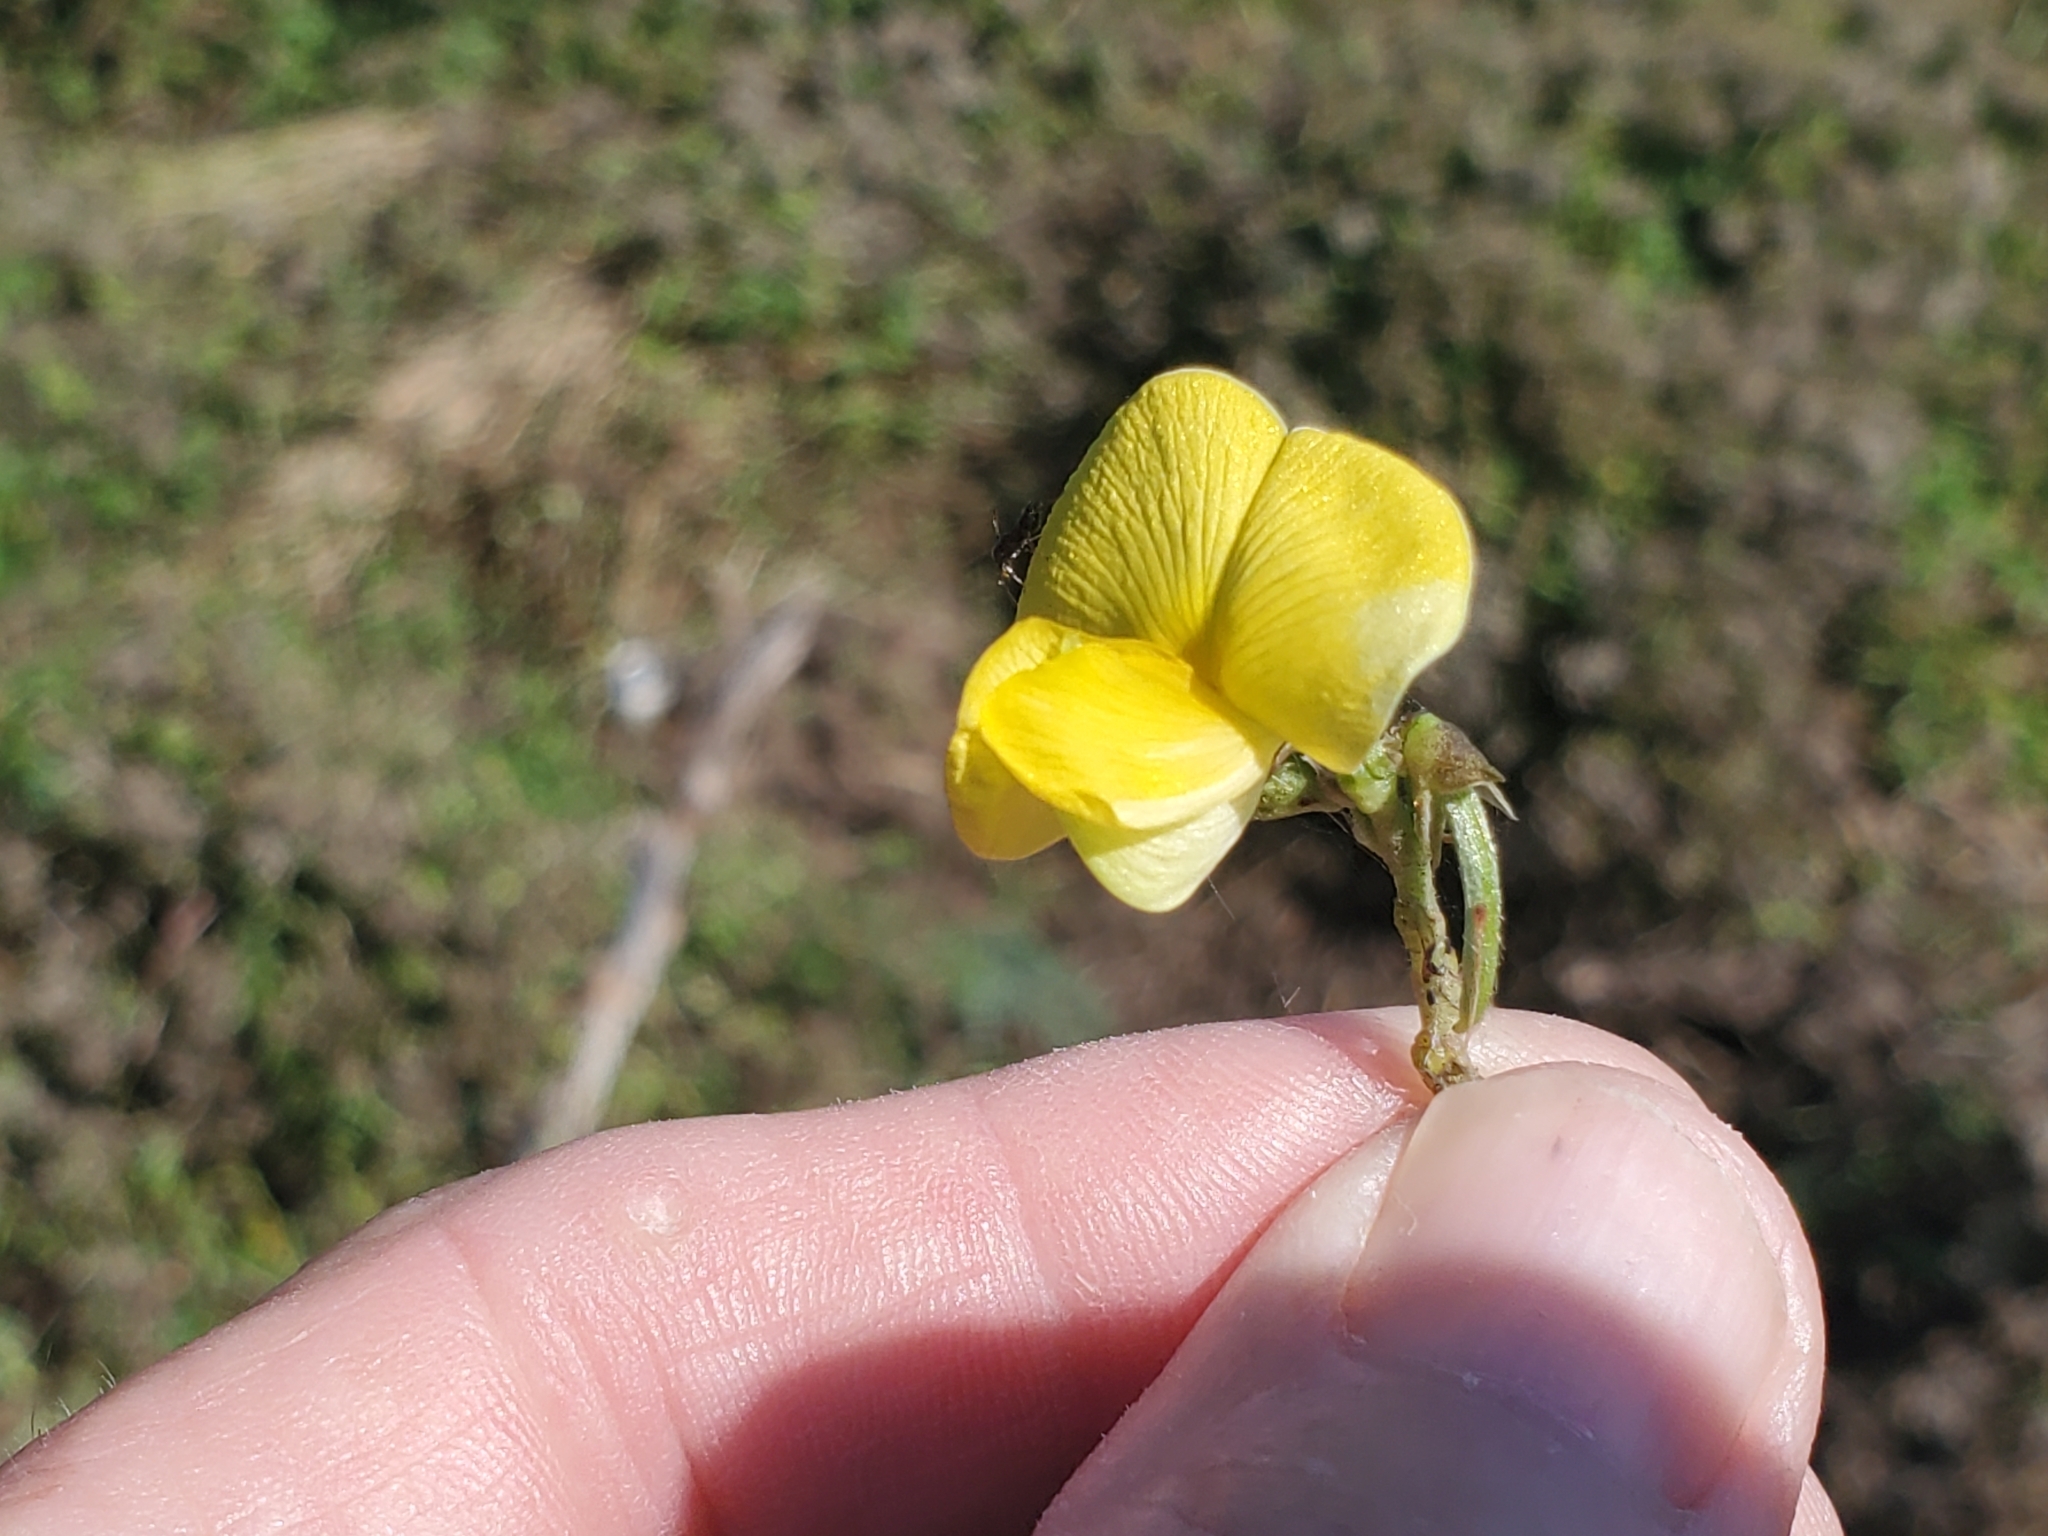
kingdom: Plantae
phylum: Tracheophyta
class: Magnoliopsida
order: Fabales
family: Fabaceae
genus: Vigna
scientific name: Vigna luteola
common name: Hairypod cowpea
